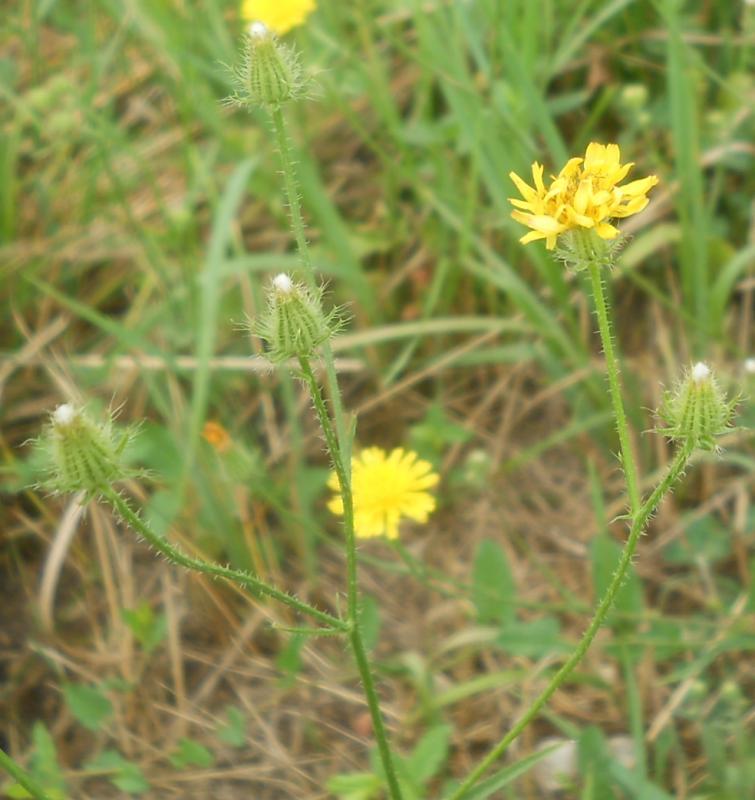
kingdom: Plantae
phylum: Tracheophyta
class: Magnoliopsida
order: Asterales
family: Asteraceae
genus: Crepis
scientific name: Crepis setosa
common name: Bristly hawk's-beard
